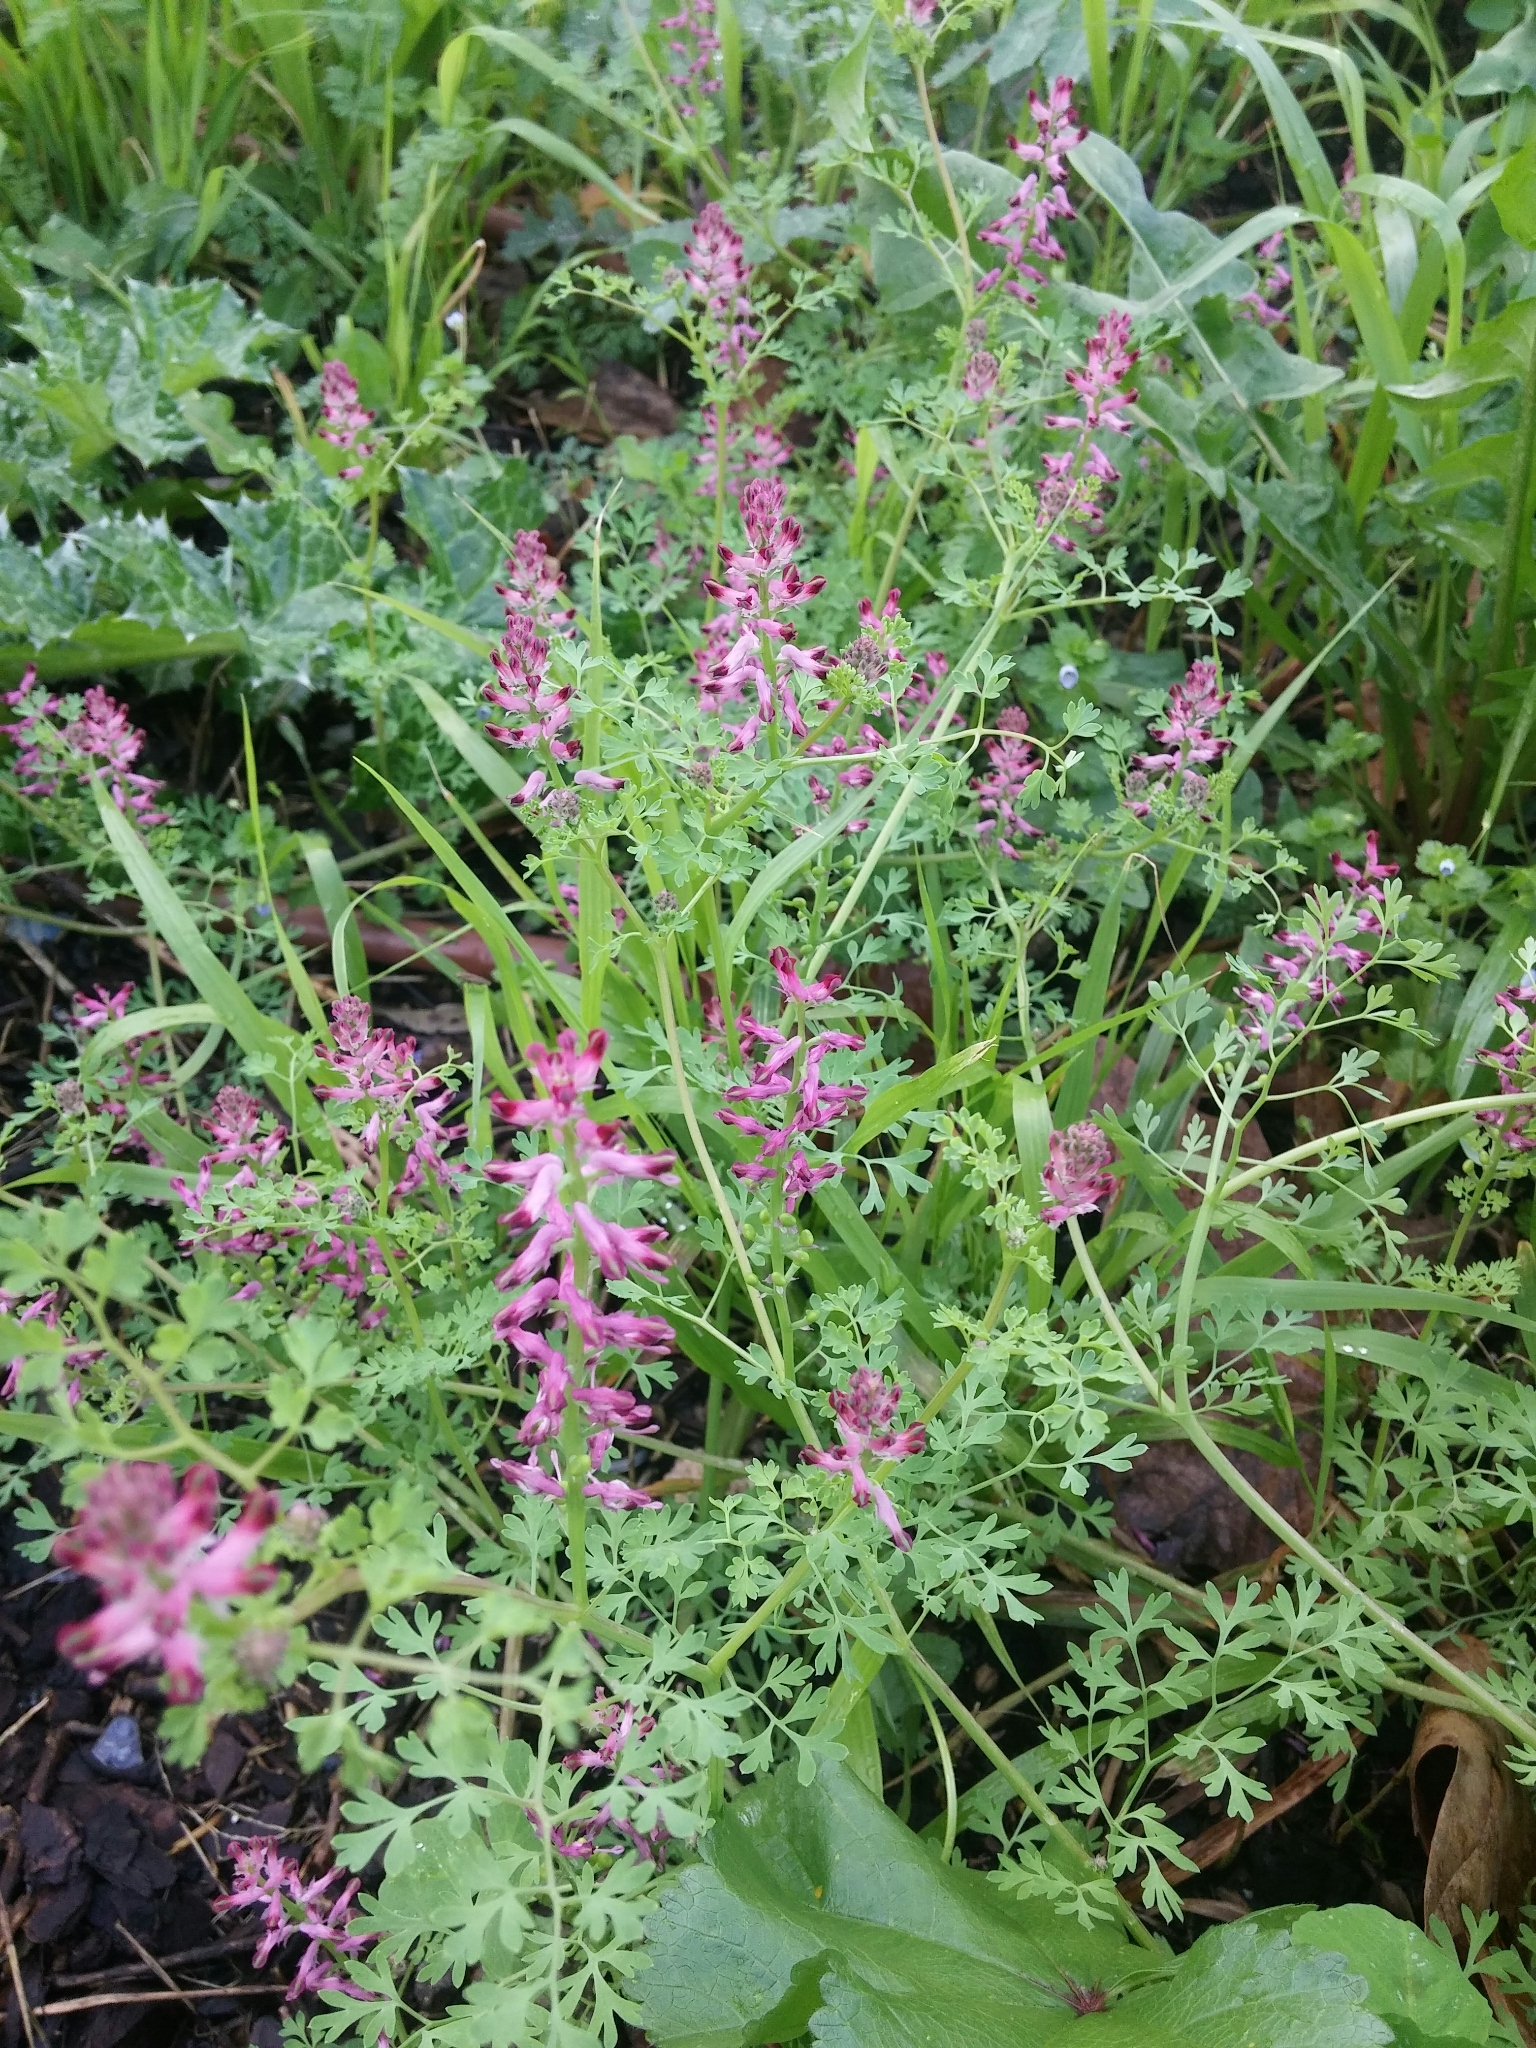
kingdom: Plantae
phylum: Tracheophyta
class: Magnoliopsida
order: Ranunculales
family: Papaveraceae
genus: Fumaria
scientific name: Fumaria officinalis
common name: Common fumitory
